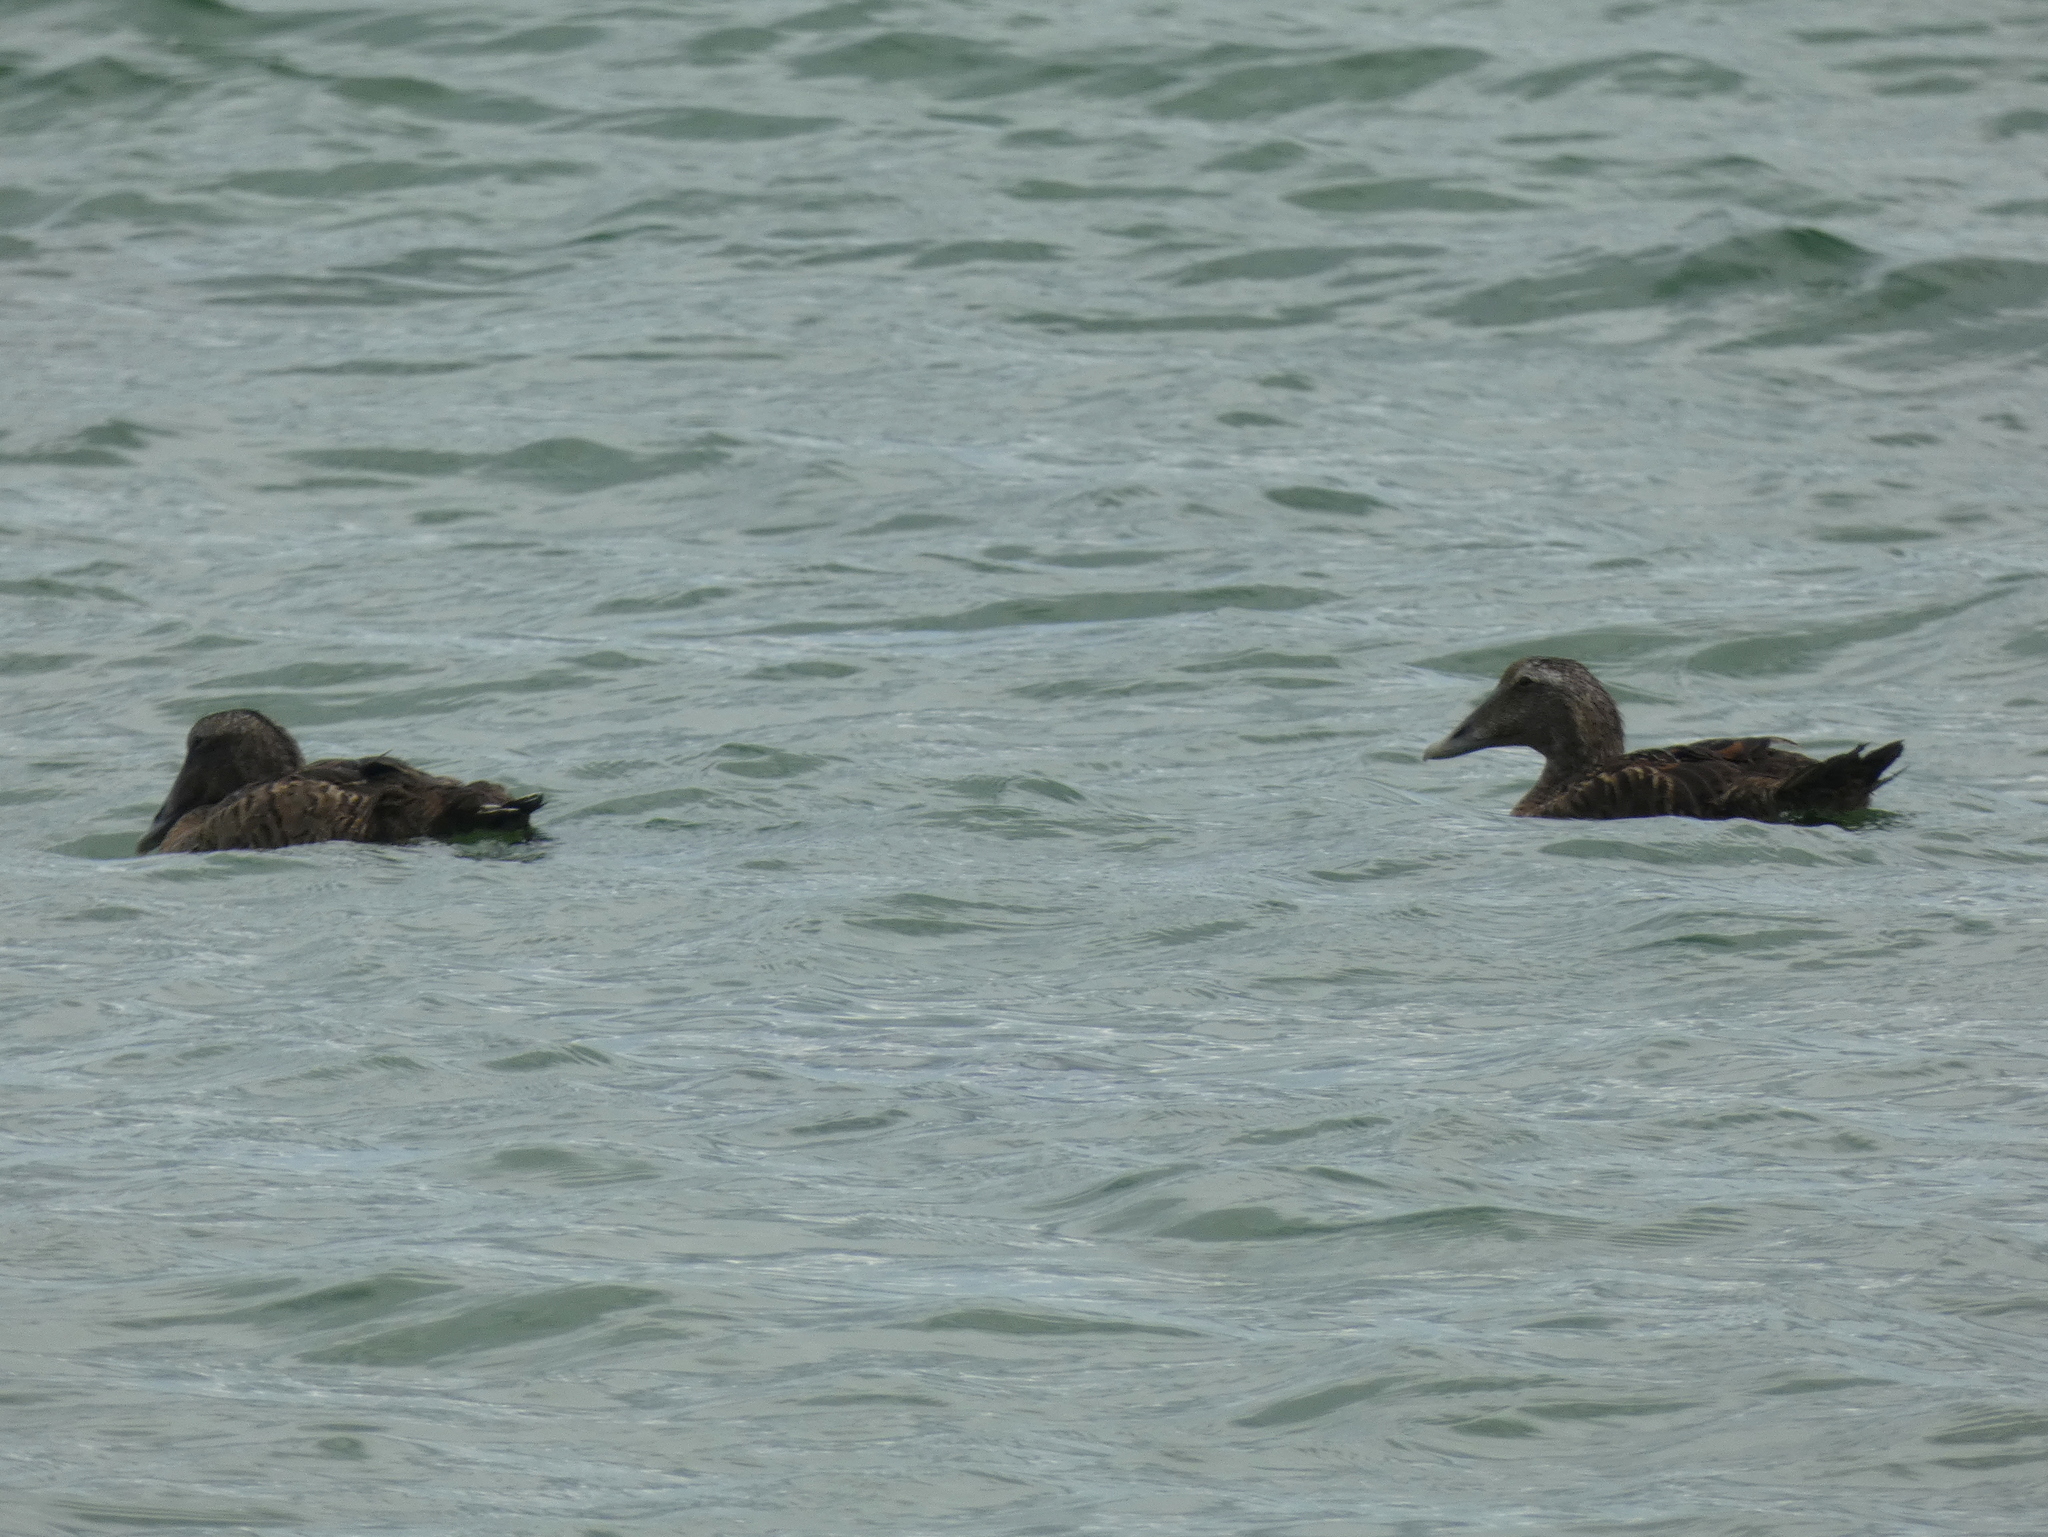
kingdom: Animalia
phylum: Chordata
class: Aves
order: Anseriformes
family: Anatidae
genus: Somateria
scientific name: Somateria mollissima
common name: Common eider
